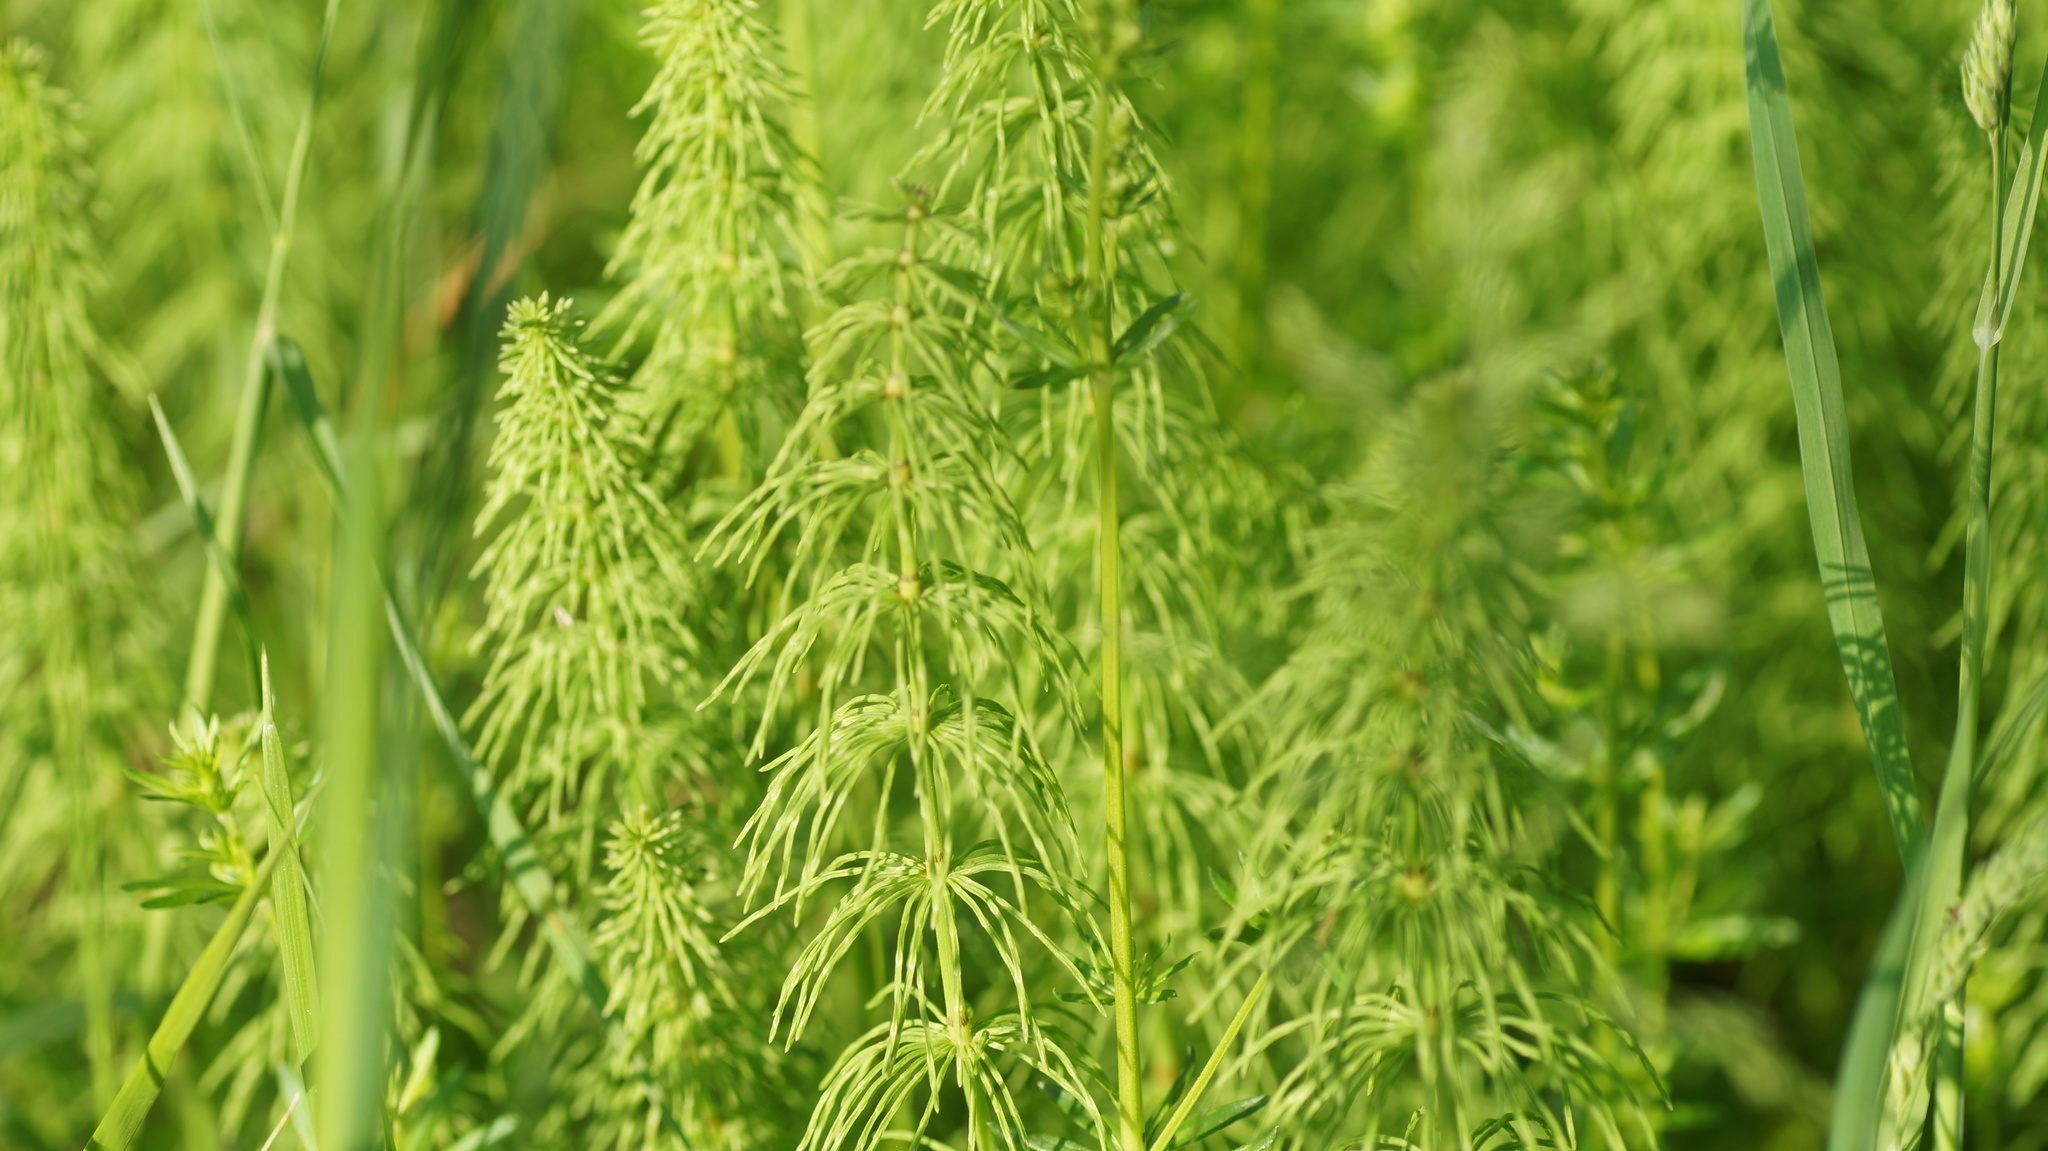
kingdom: Plantae
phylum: Tracheophyta
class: Polypodiopsida
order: Equisetales
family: Equisetaceae
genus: Equisetum
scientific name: Equisetum pratense
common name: Meadow horsetail
